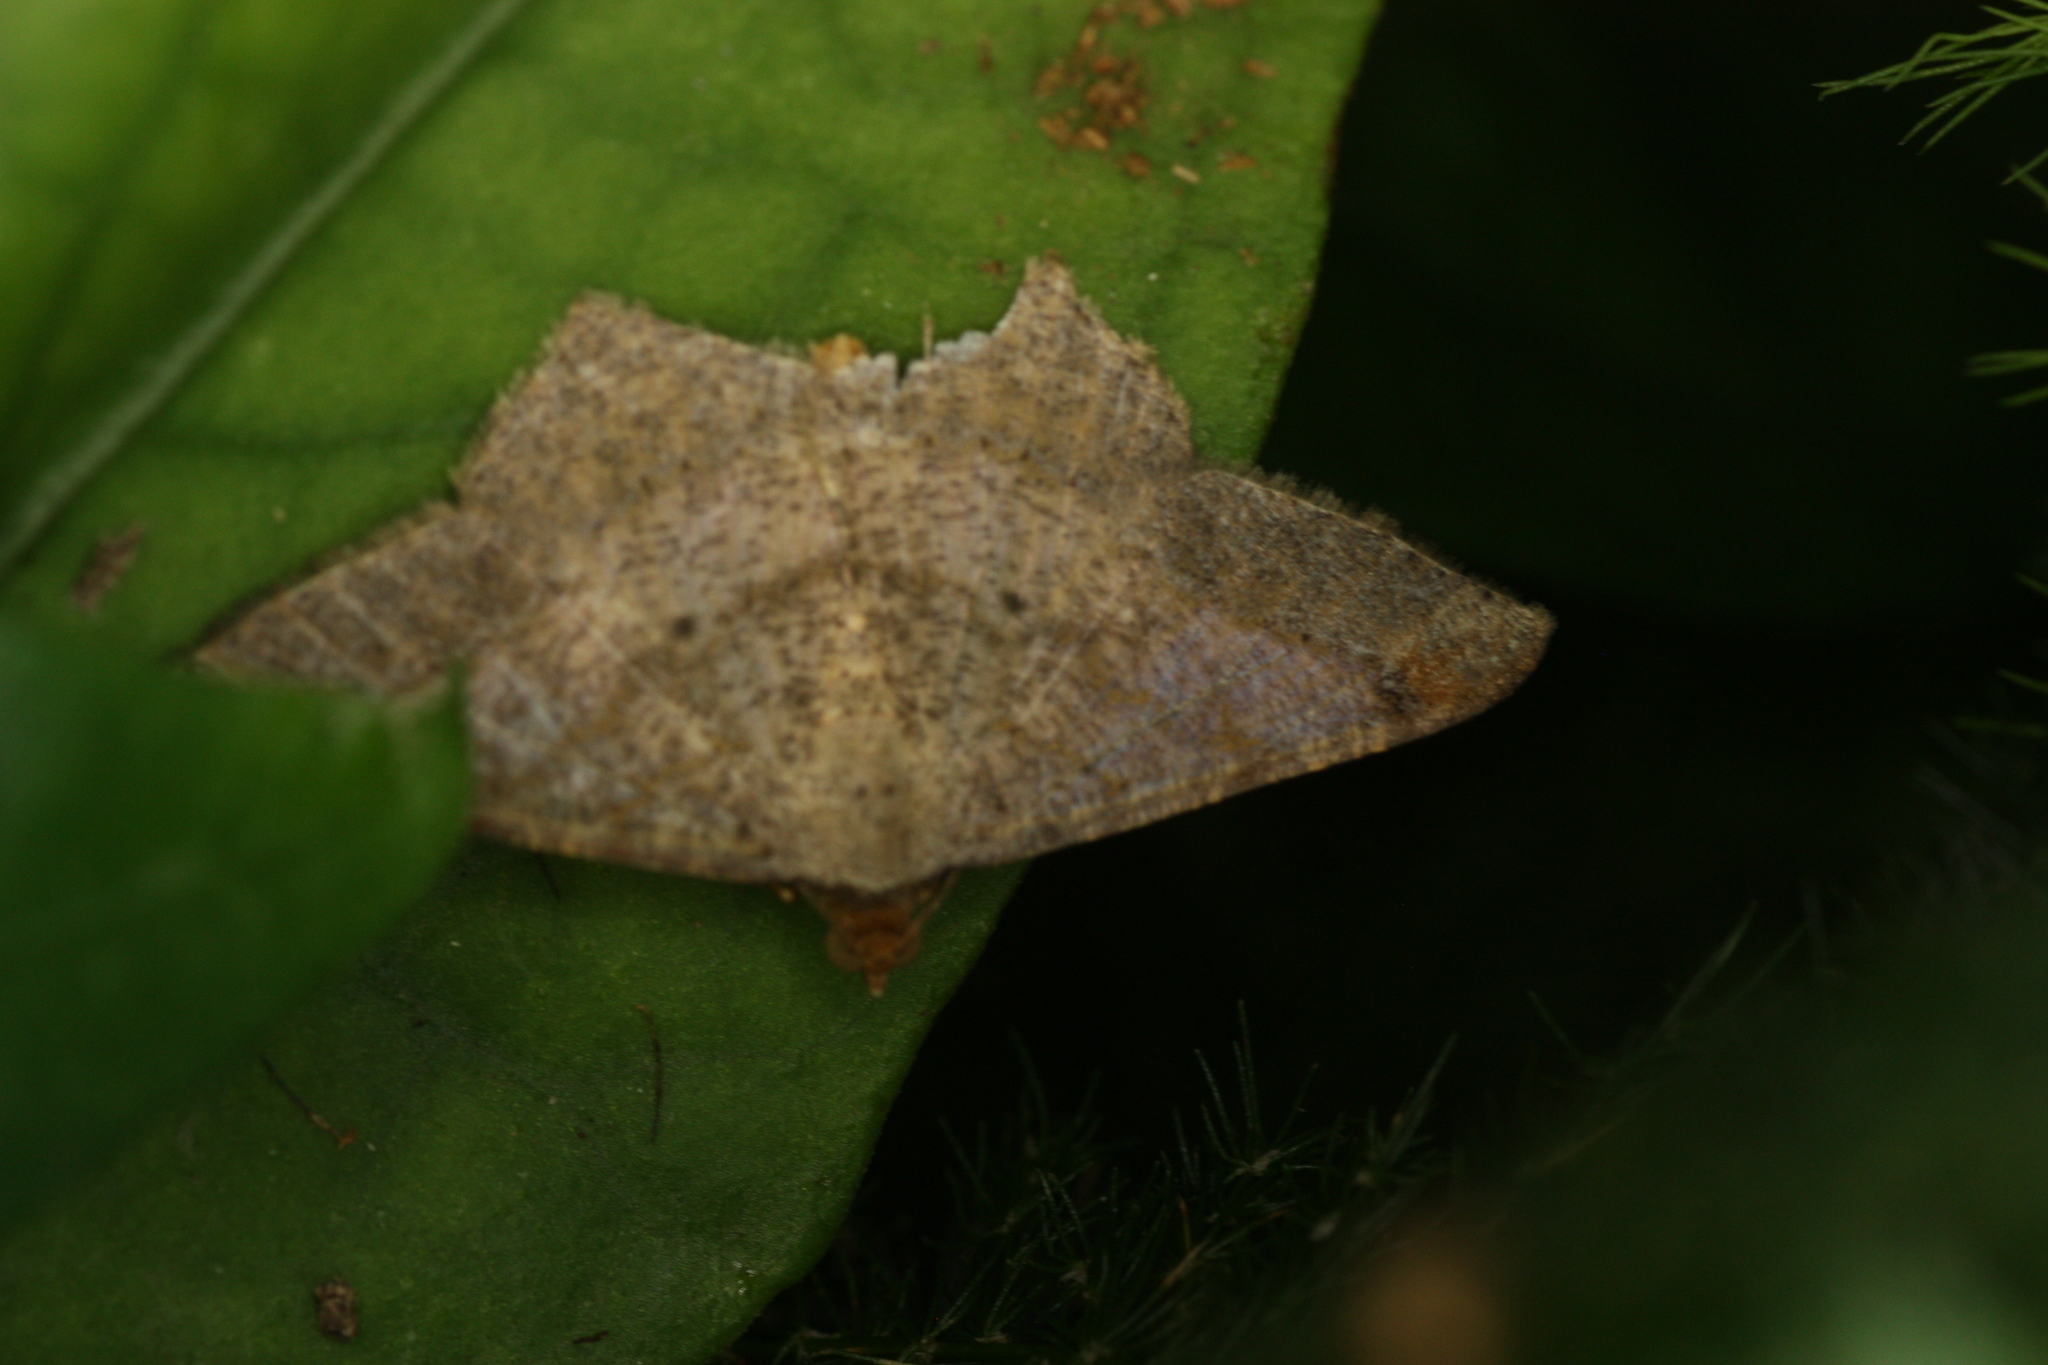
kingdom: Animalia
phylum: Arthropoda
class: Insecta
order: Lepidoptera
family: Geometridae
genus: Macaria
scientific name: Macaria abydata
